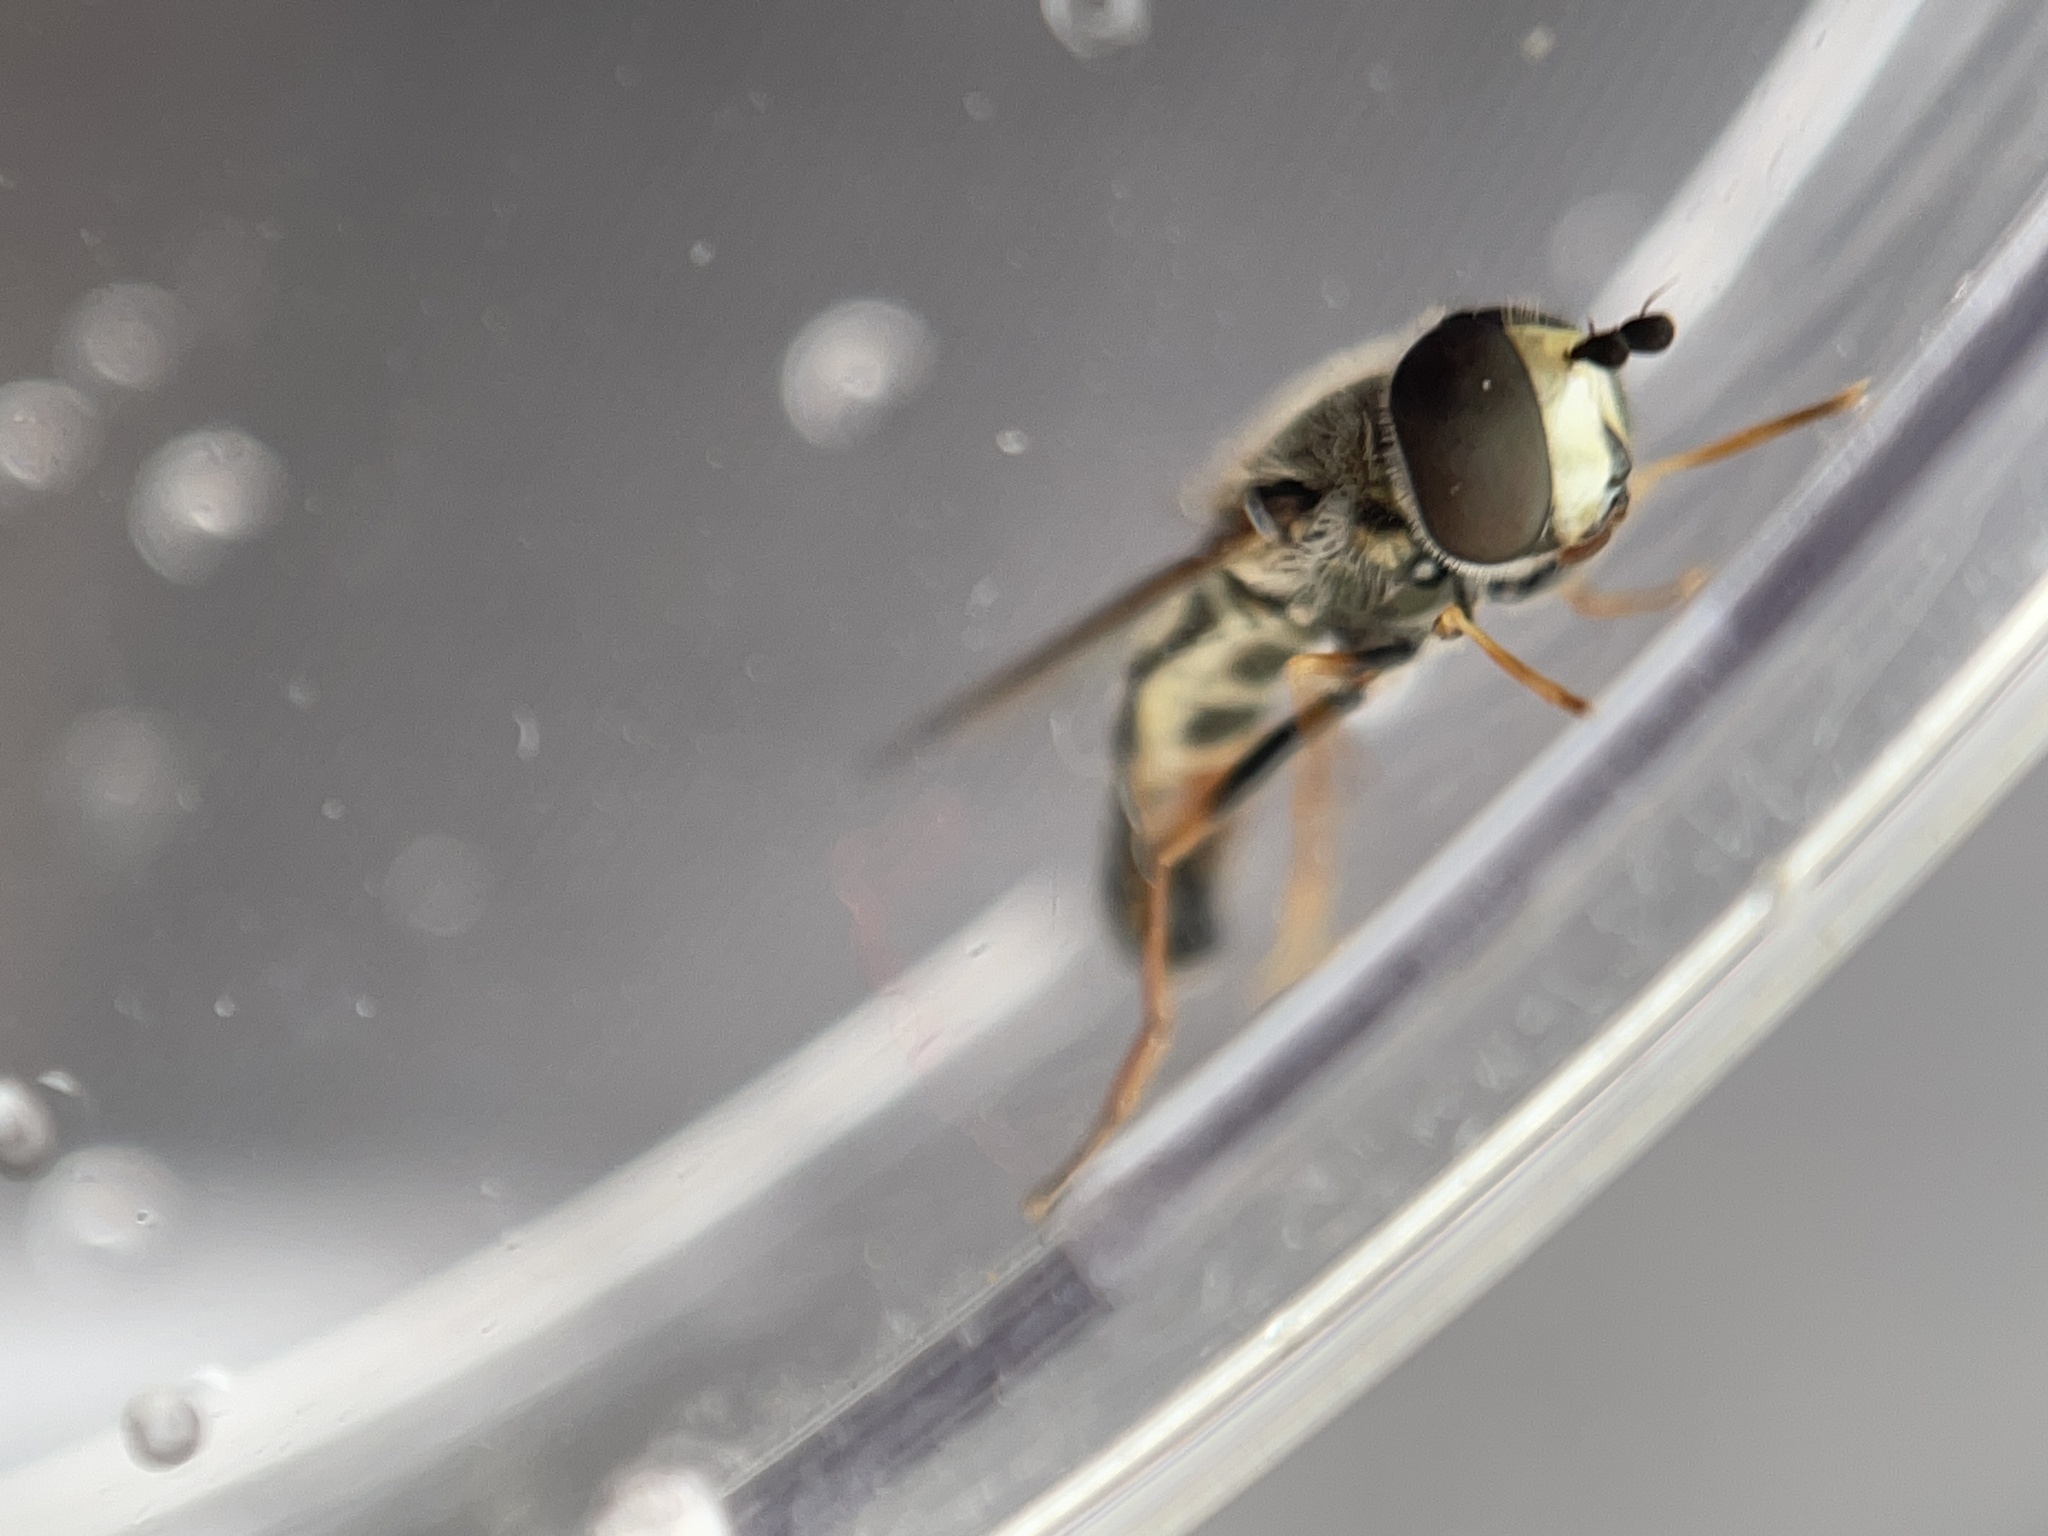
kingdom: Animalia
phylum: Arthropoda
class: Insecta
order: Diptera
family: Syrphidae
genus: Eupeodes
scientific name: Eupeodes volucris
